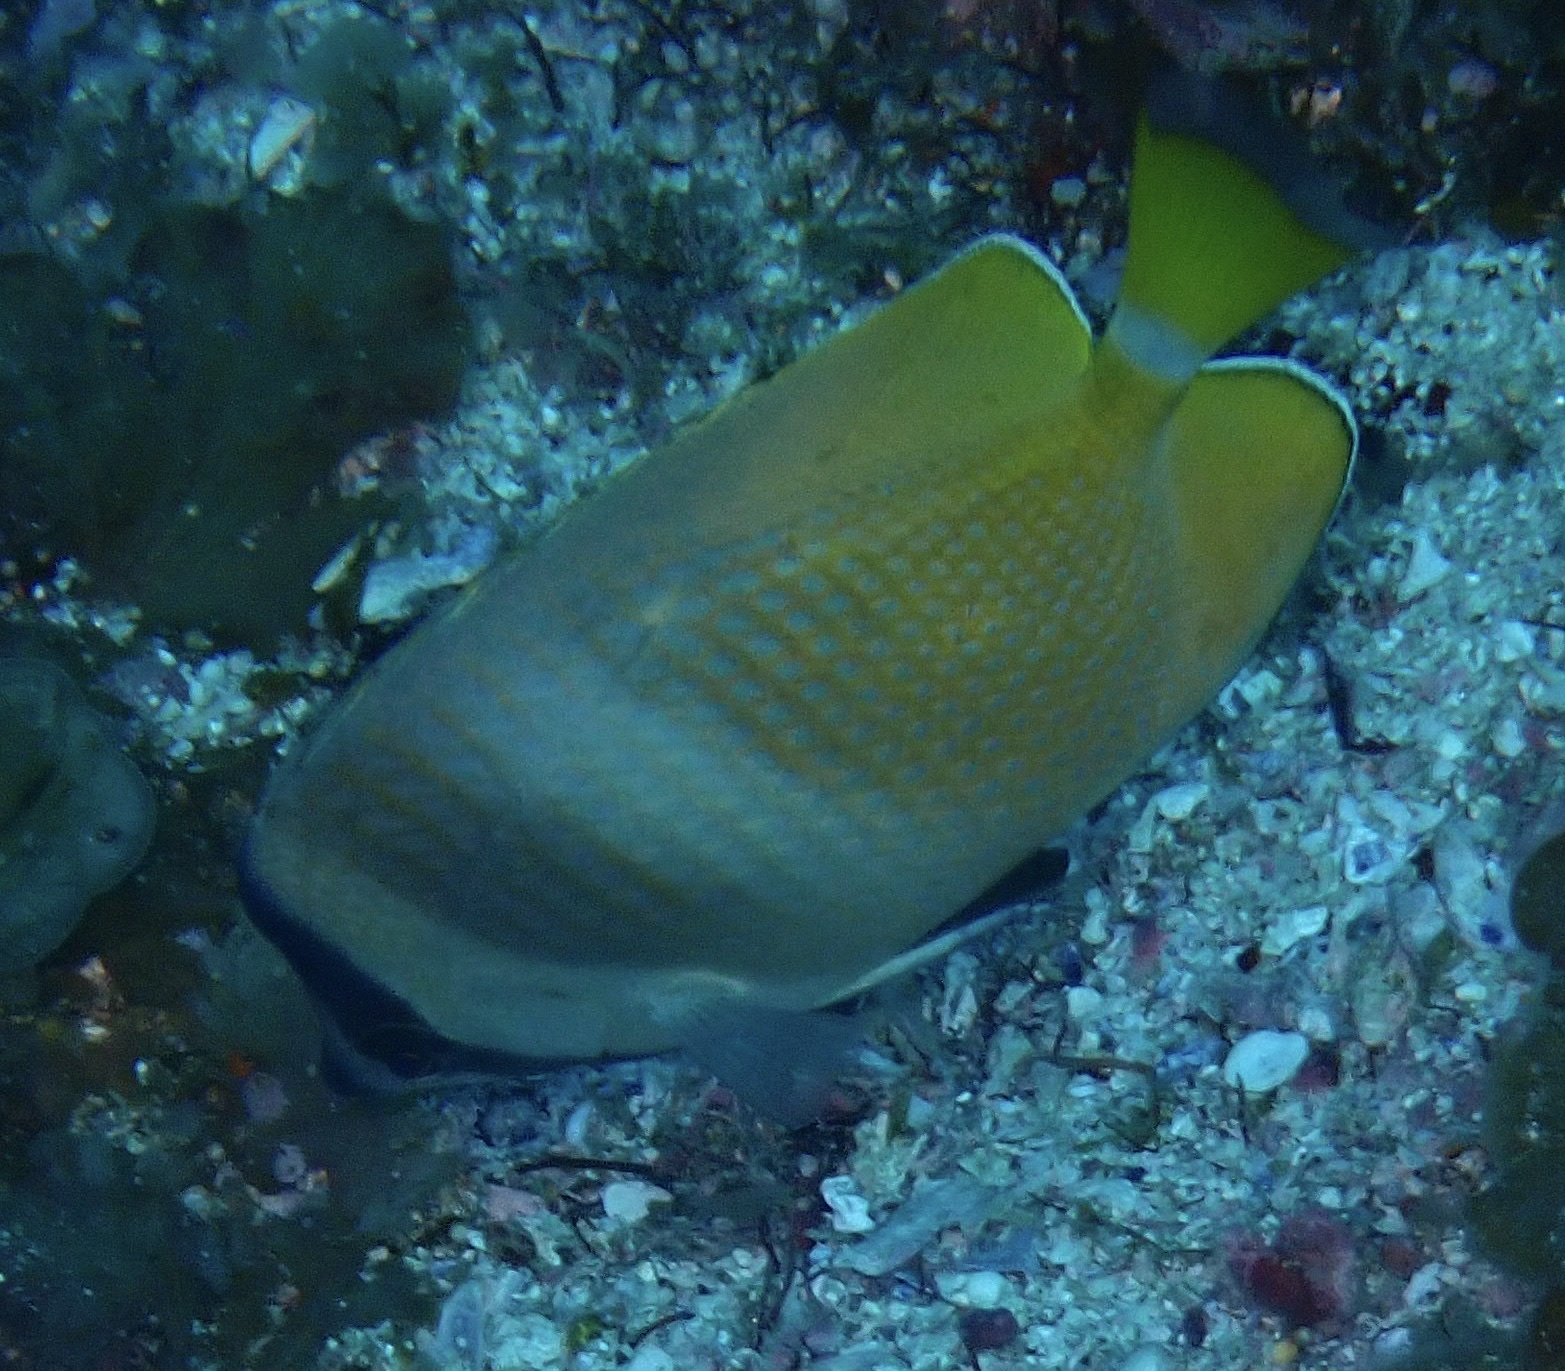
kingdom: Animalia
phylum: Chordata
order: Perciformes
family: Chaetodontidae
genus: Chaetodon
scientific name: Chaetodon kleinii
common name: Klein's butterflyfish
